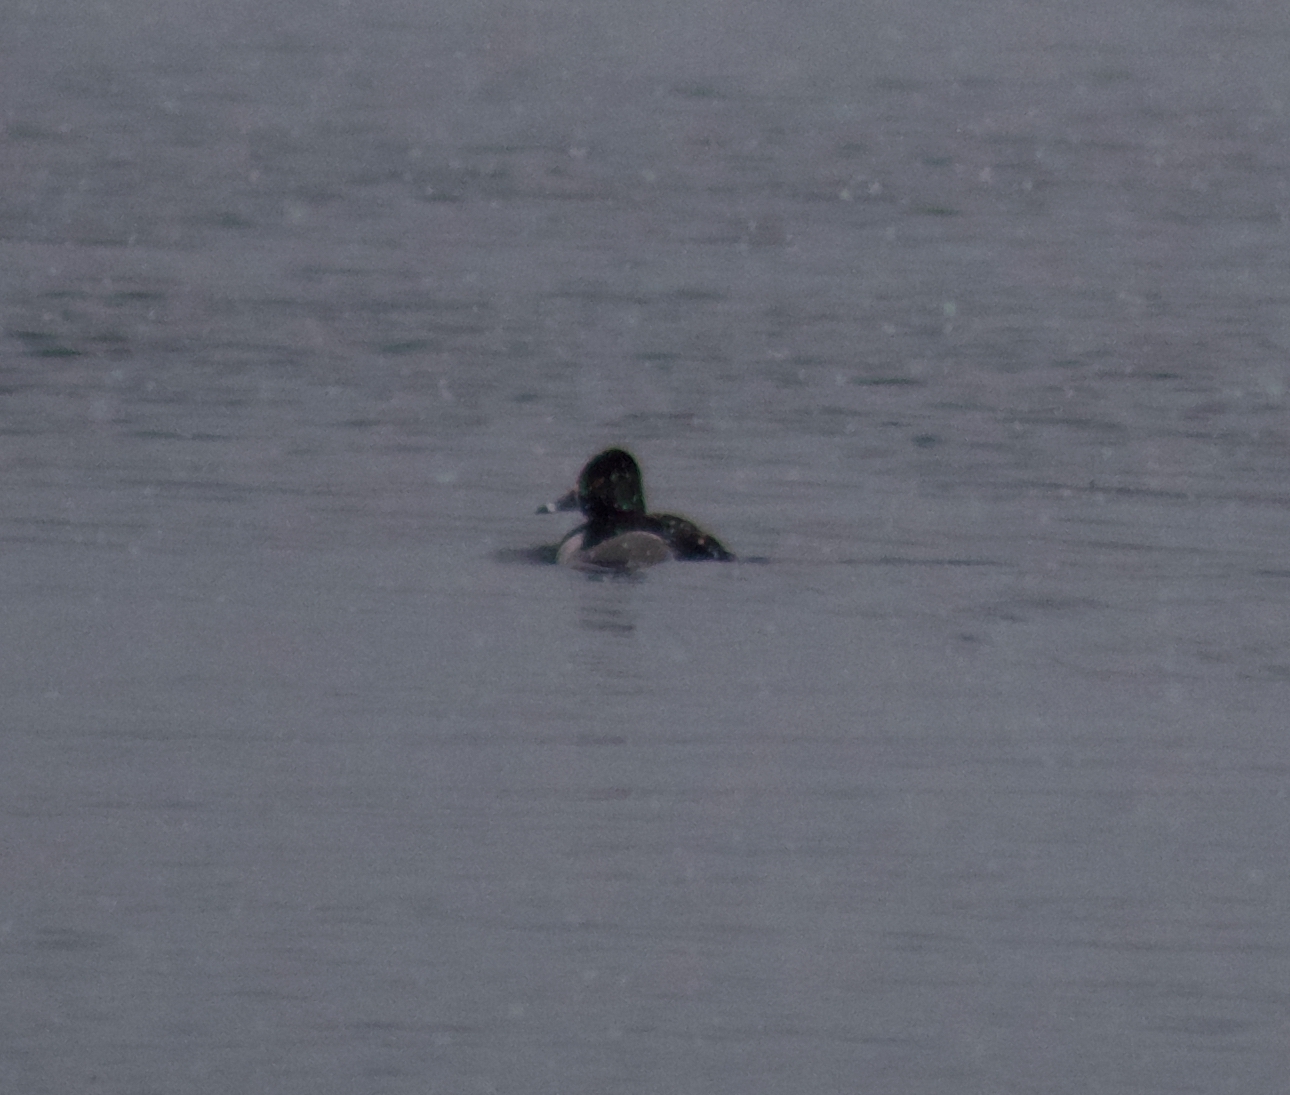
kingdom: Animalia
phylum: Chordata
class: Aves
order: Anseriformes
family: Anatidae
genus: Aythya
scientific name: Aythya collaris
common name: Ring-necked duck
